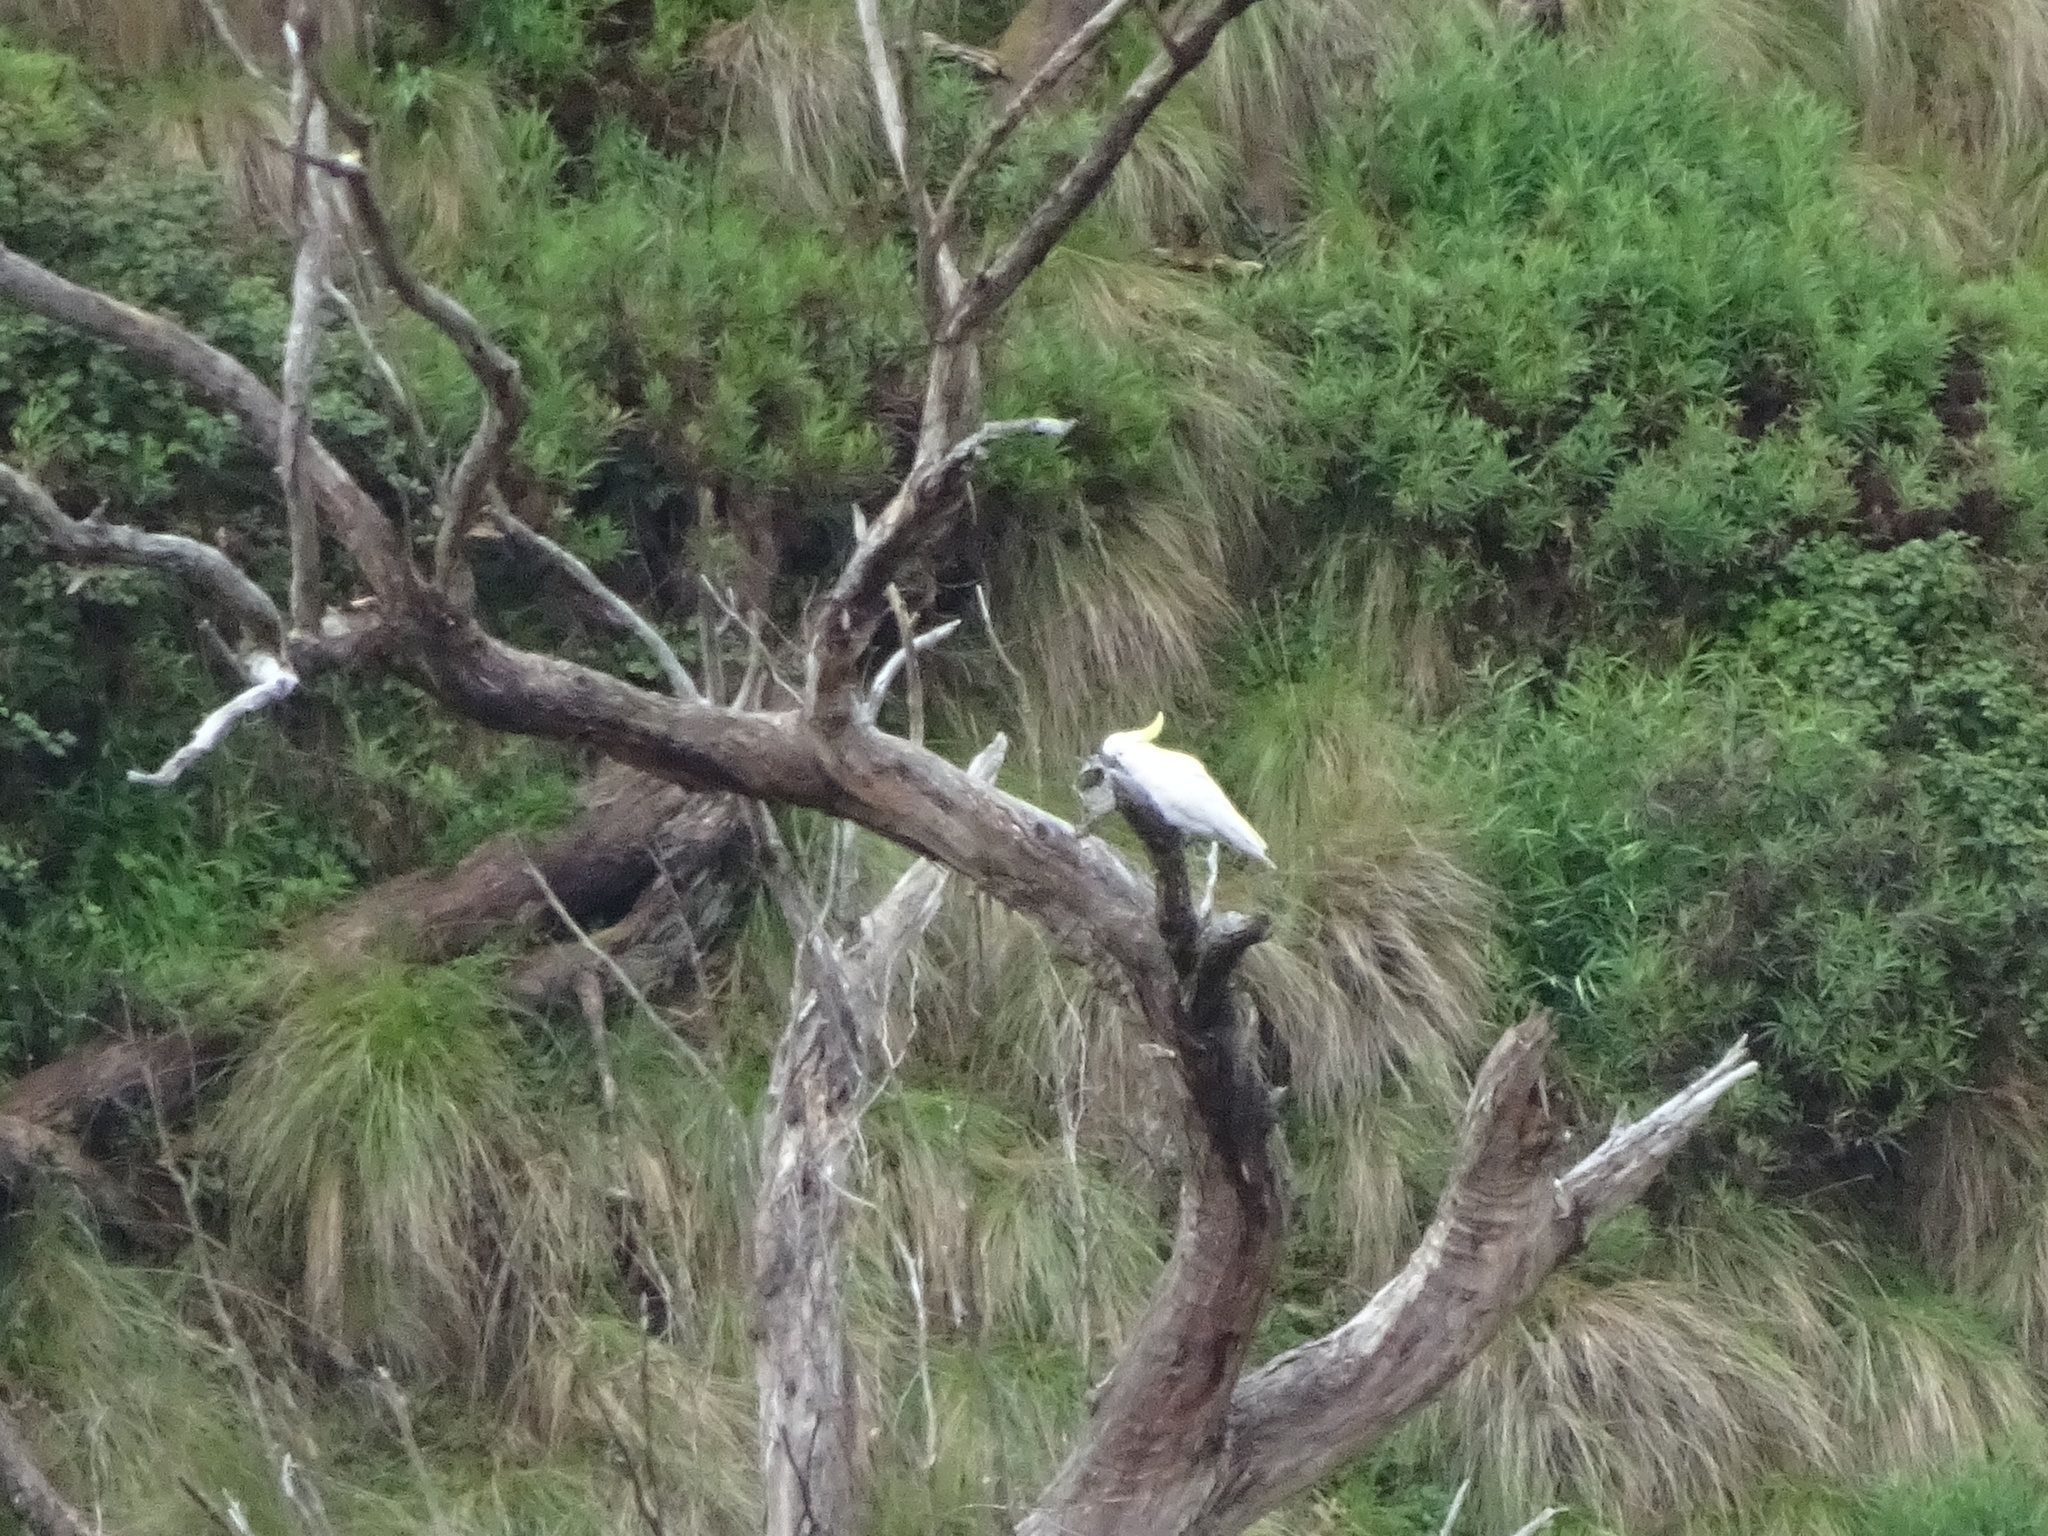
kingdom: Animalia
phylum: Chordata
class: Aves
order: Psittaciformes
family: Psittacidae
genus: Cacatua
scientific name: Cacatua galerita
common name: Sulphur-crested cockatoo
